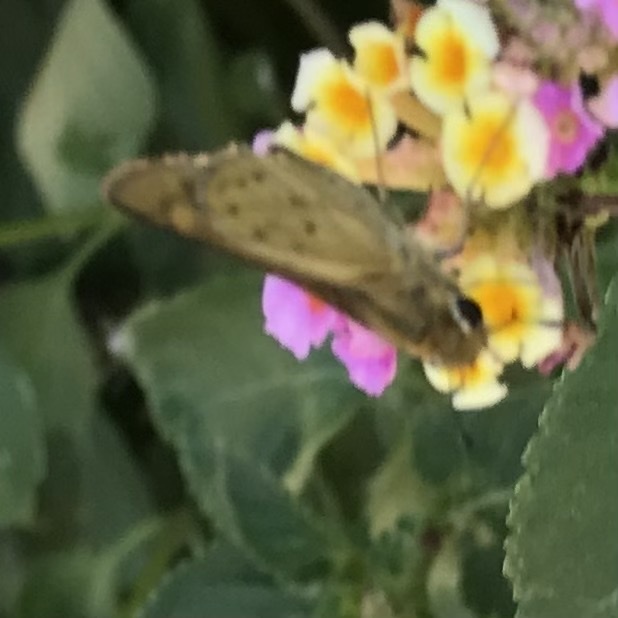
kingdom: Animalia
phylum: Arthropoda
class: Insecta
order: Lepidoptera
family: Hesperiidae
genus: Hylephila
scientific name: Hylephila phyleus
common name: Fiery skipper
